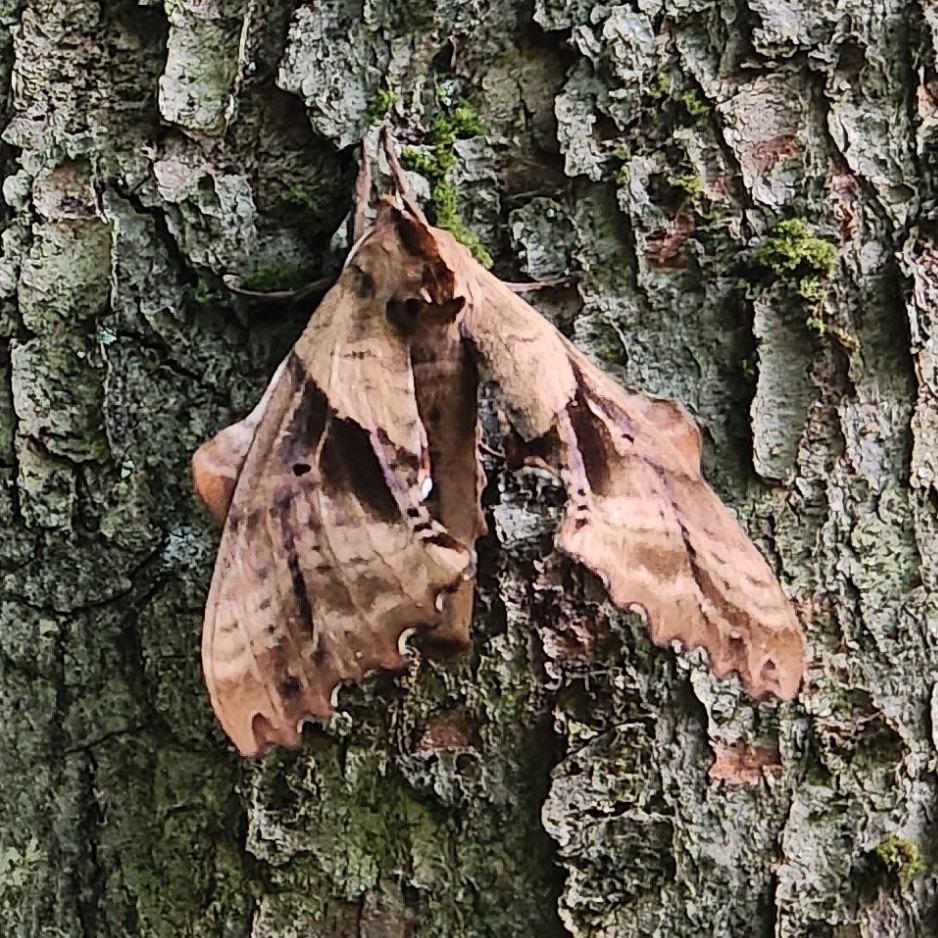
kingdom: Animalia
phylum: Arthropoda
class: Insecta
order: Lepidoptera
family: Sphingidae
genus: Paonias
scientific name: Paonias excaecata
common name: Blind-eyed sphinx
